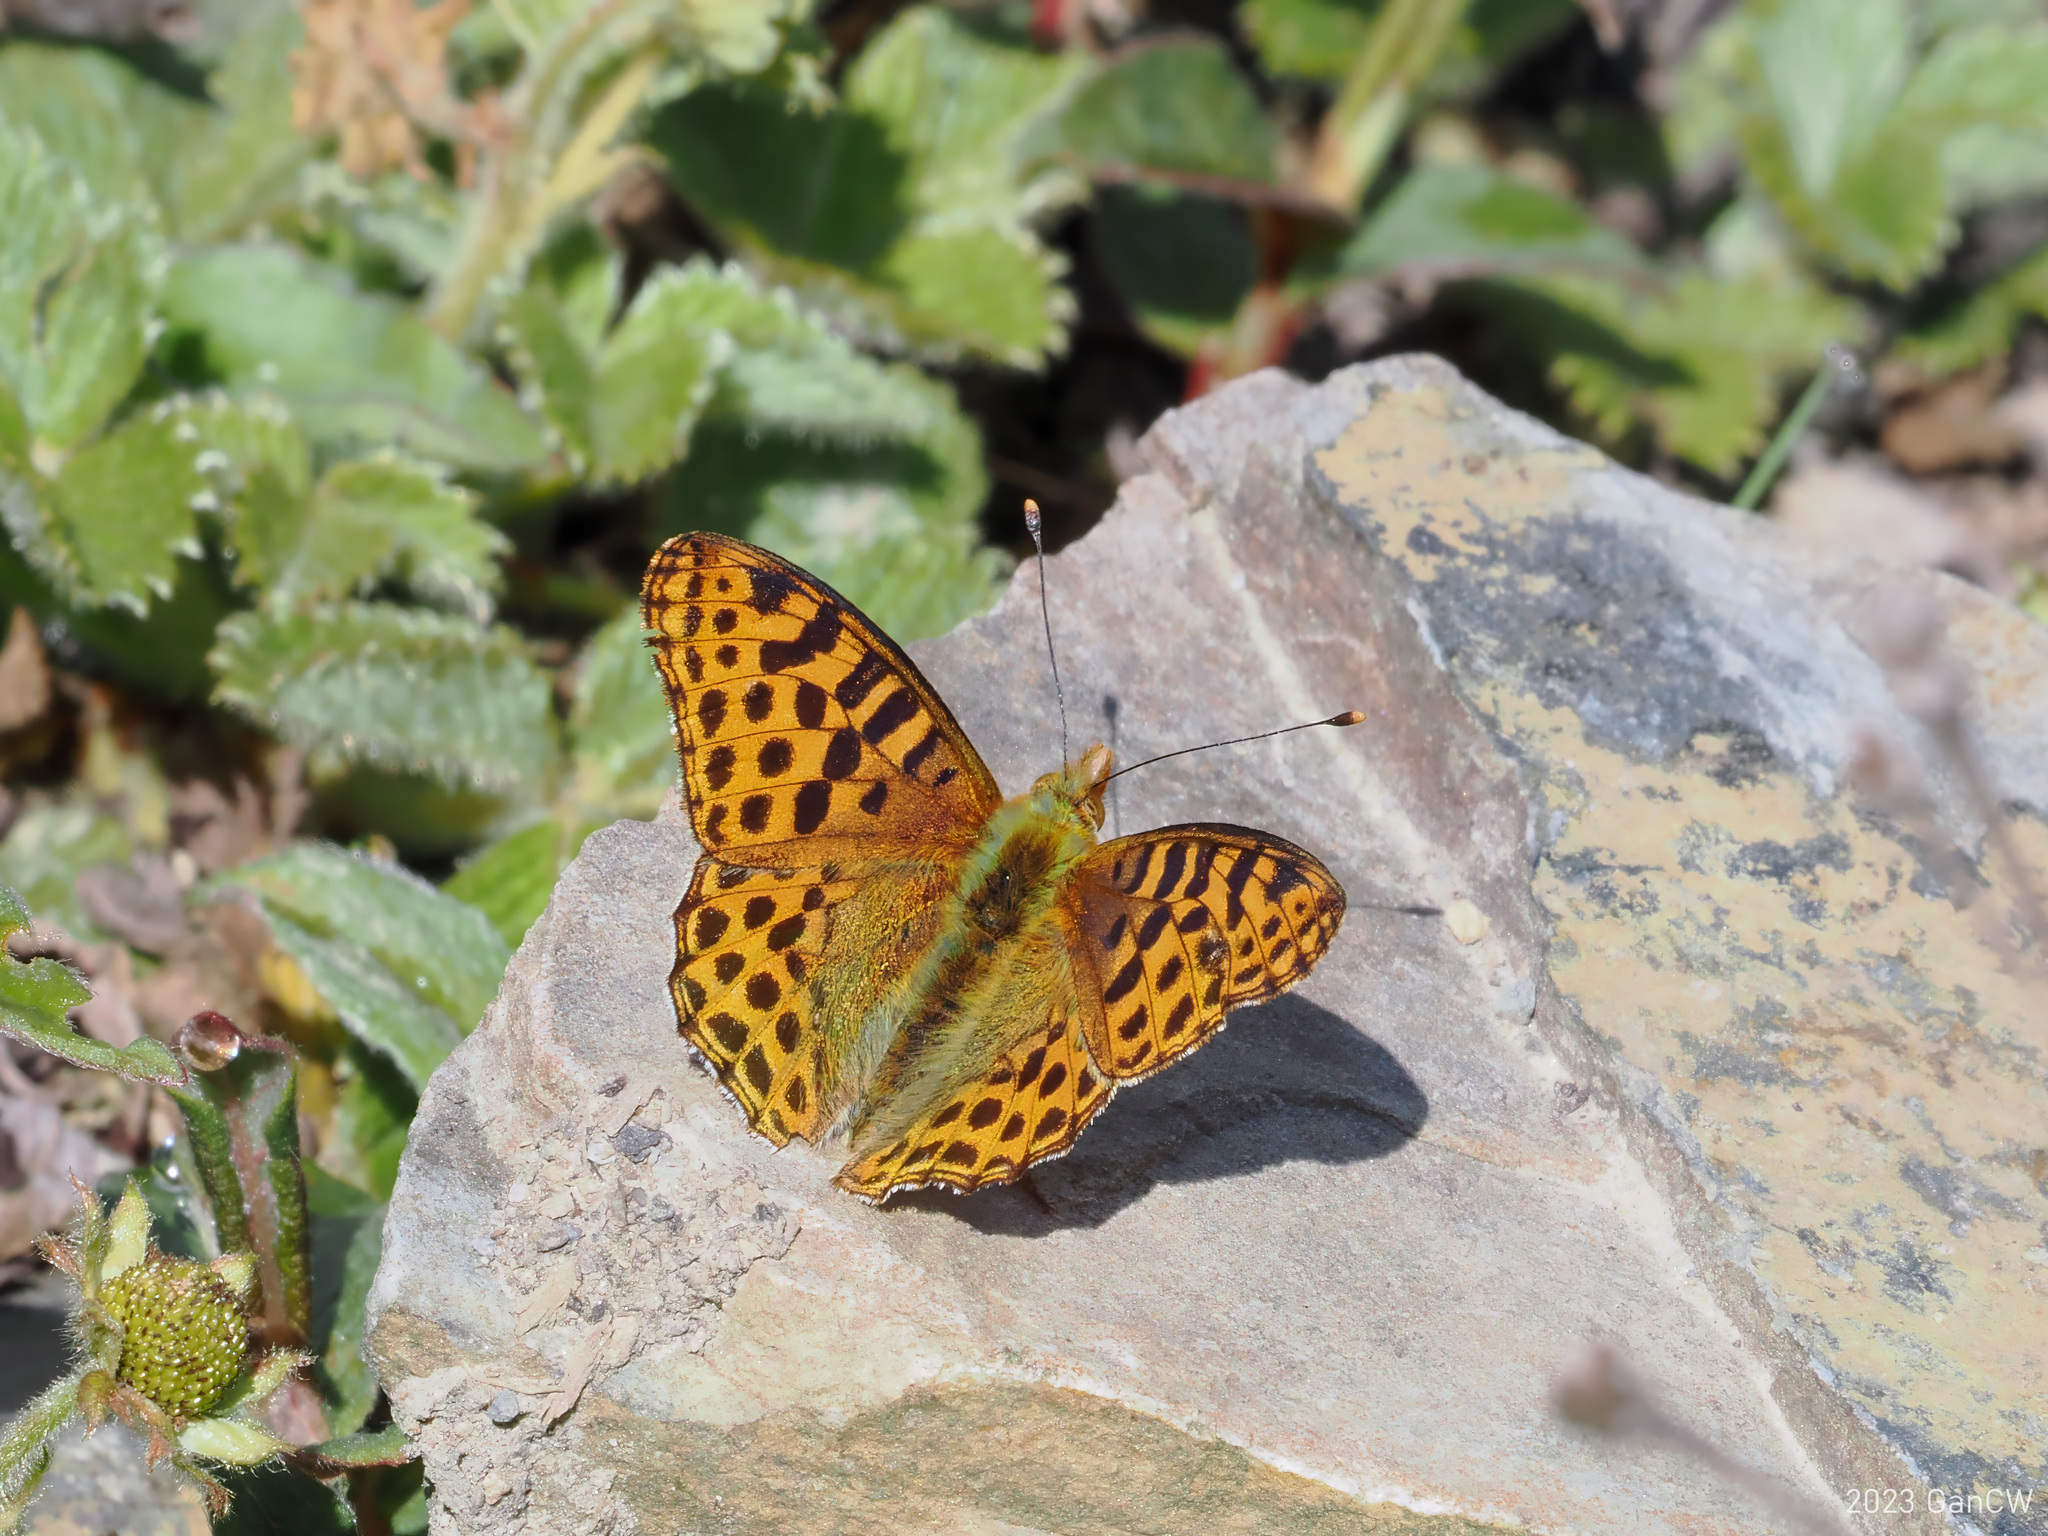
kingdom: Animalia
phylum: Arthropoda
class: Insecta
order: Lepidoptera
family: Nymphalidae
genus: Issoria
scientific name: Issoria
